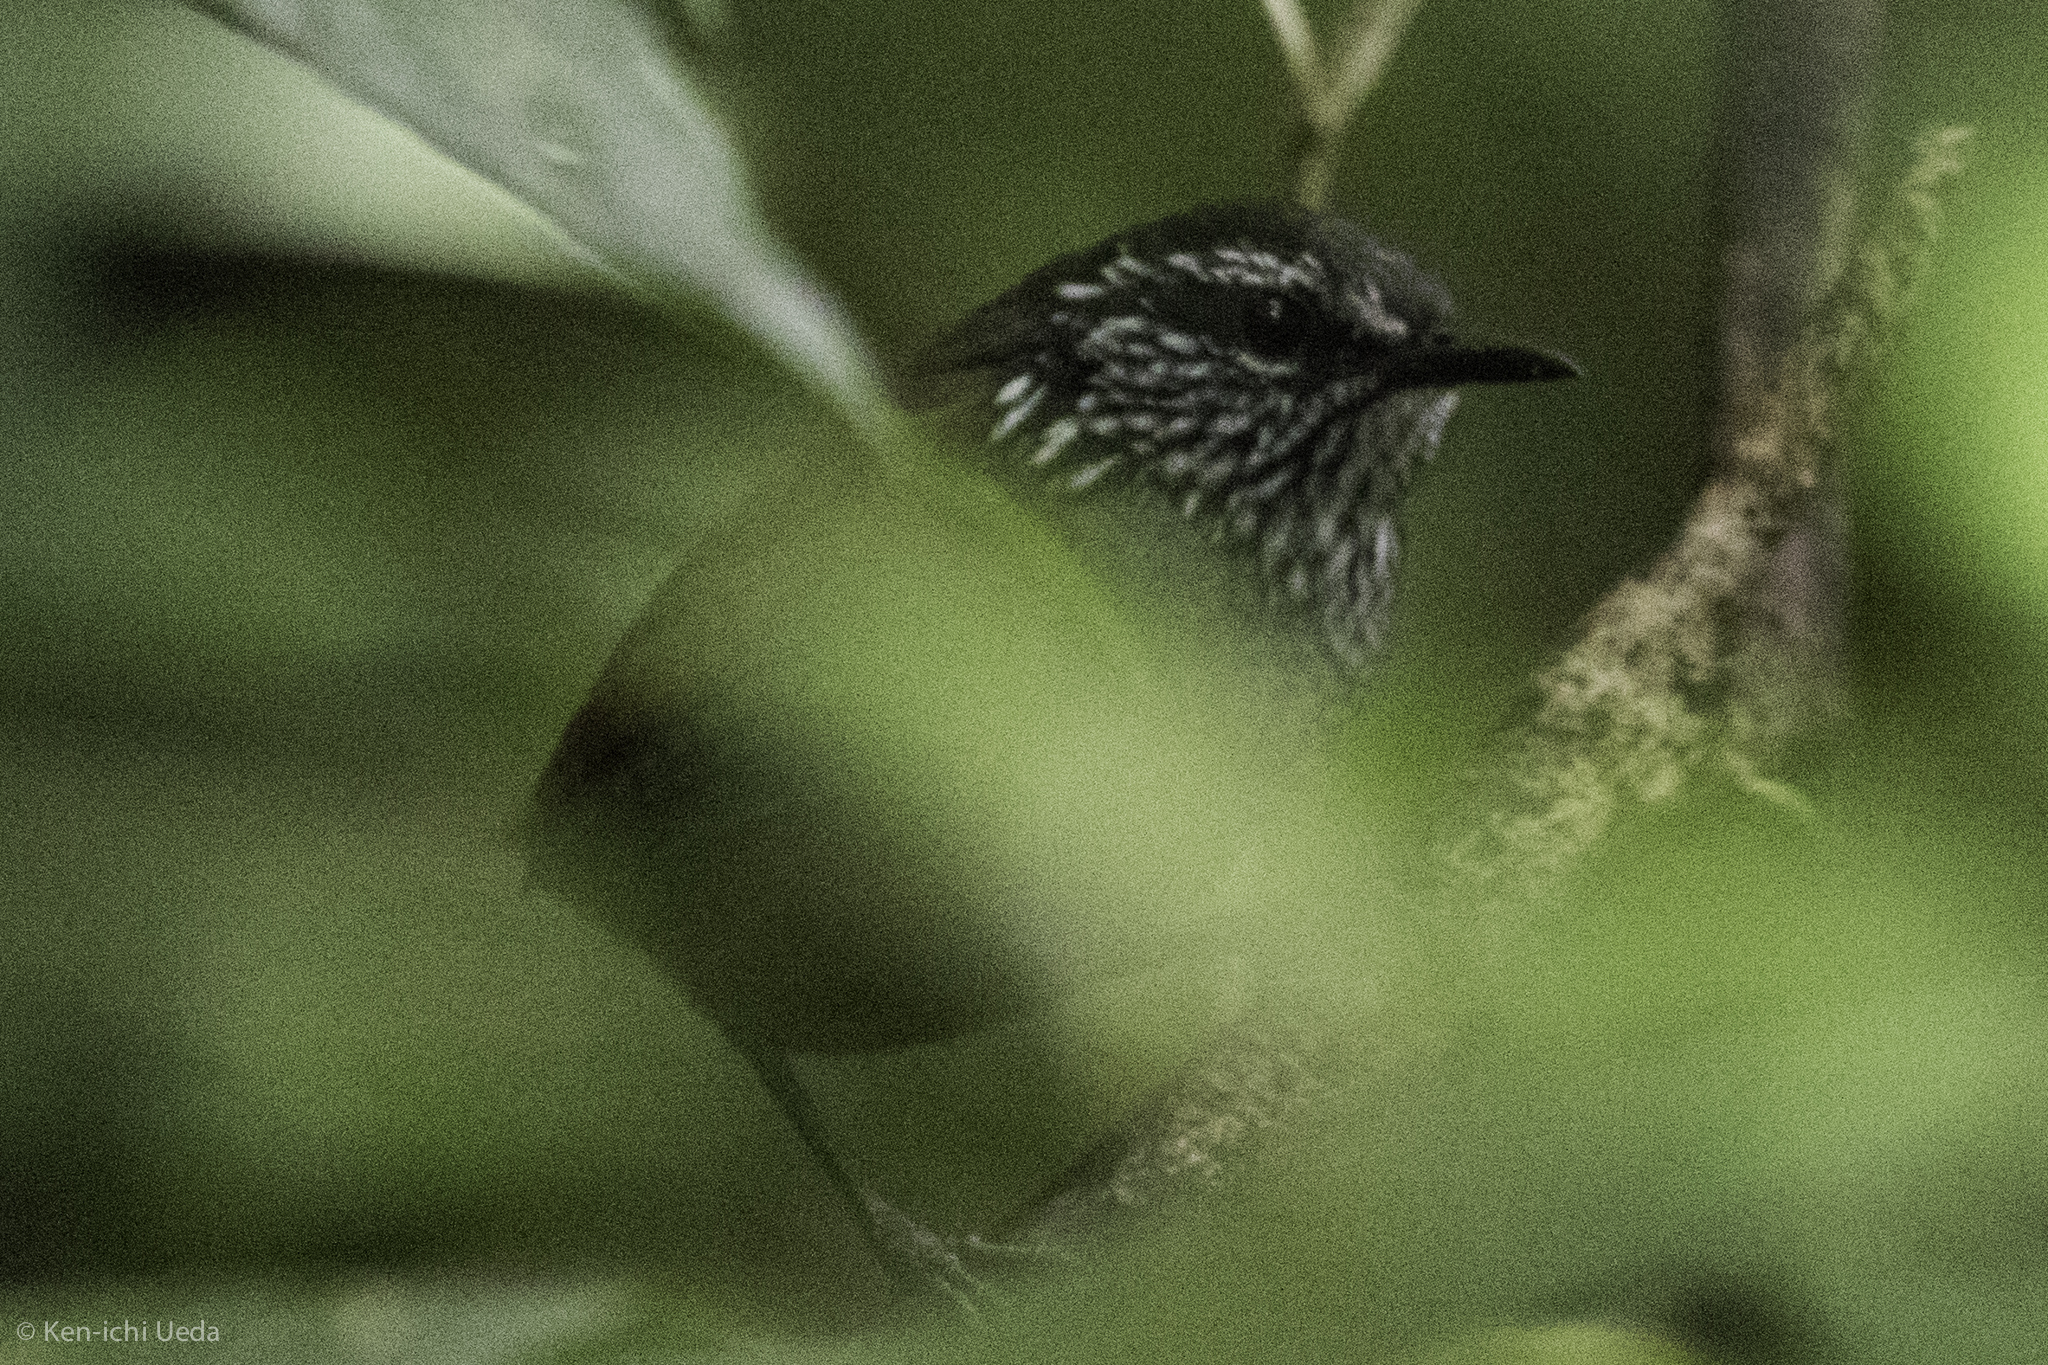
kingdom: Animalia
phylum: Chordata
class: Aves
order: Passeriformes
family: Troglodytidae
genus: Henicorhina
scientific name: Henicorhina leucophrys
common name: Gray-breasted wood-wren
